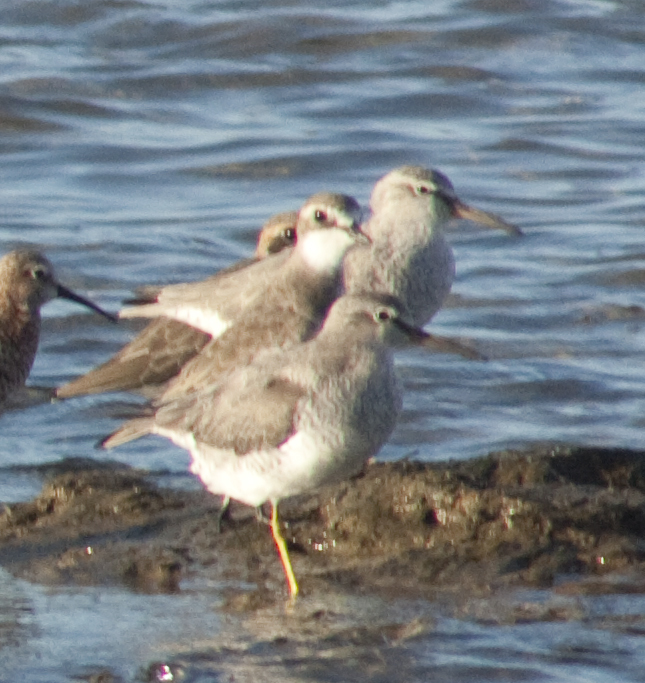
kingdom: Animalia
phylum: Chordata
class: Aves
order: Charadriiformes
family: Scolopacidae
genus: Tringa
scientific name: Tringa brevipes
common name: Grey-tailed tattler
